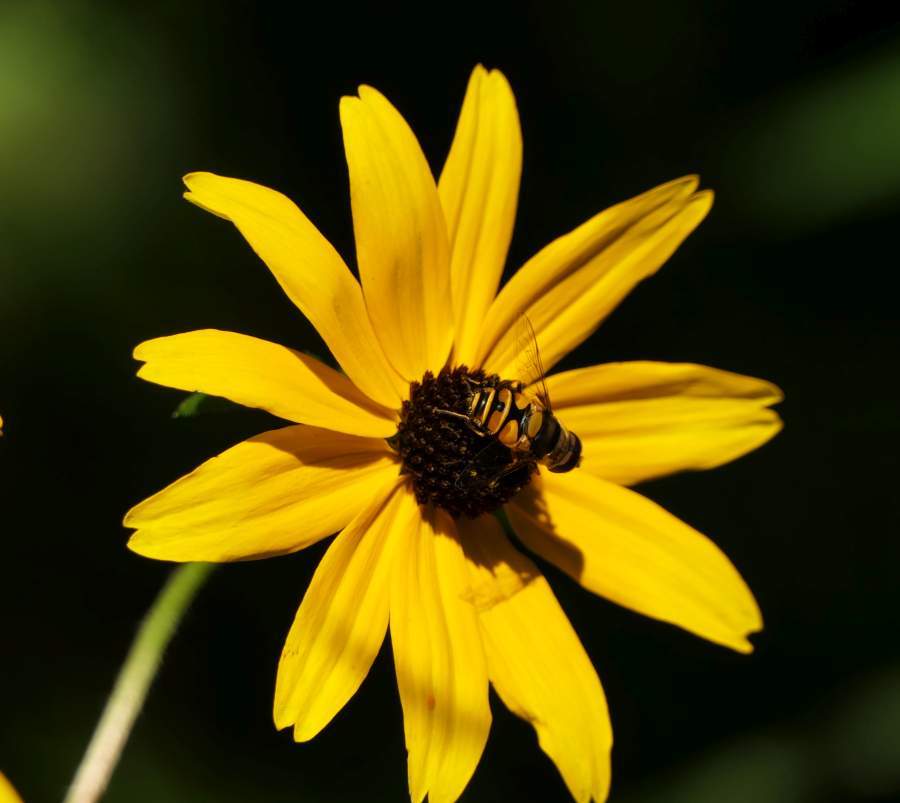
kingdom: Animalia
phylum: Arthropoda
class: Insecta
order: Diptera
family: Syrphidae
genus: Eristalis
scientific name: Eristalis transversa
